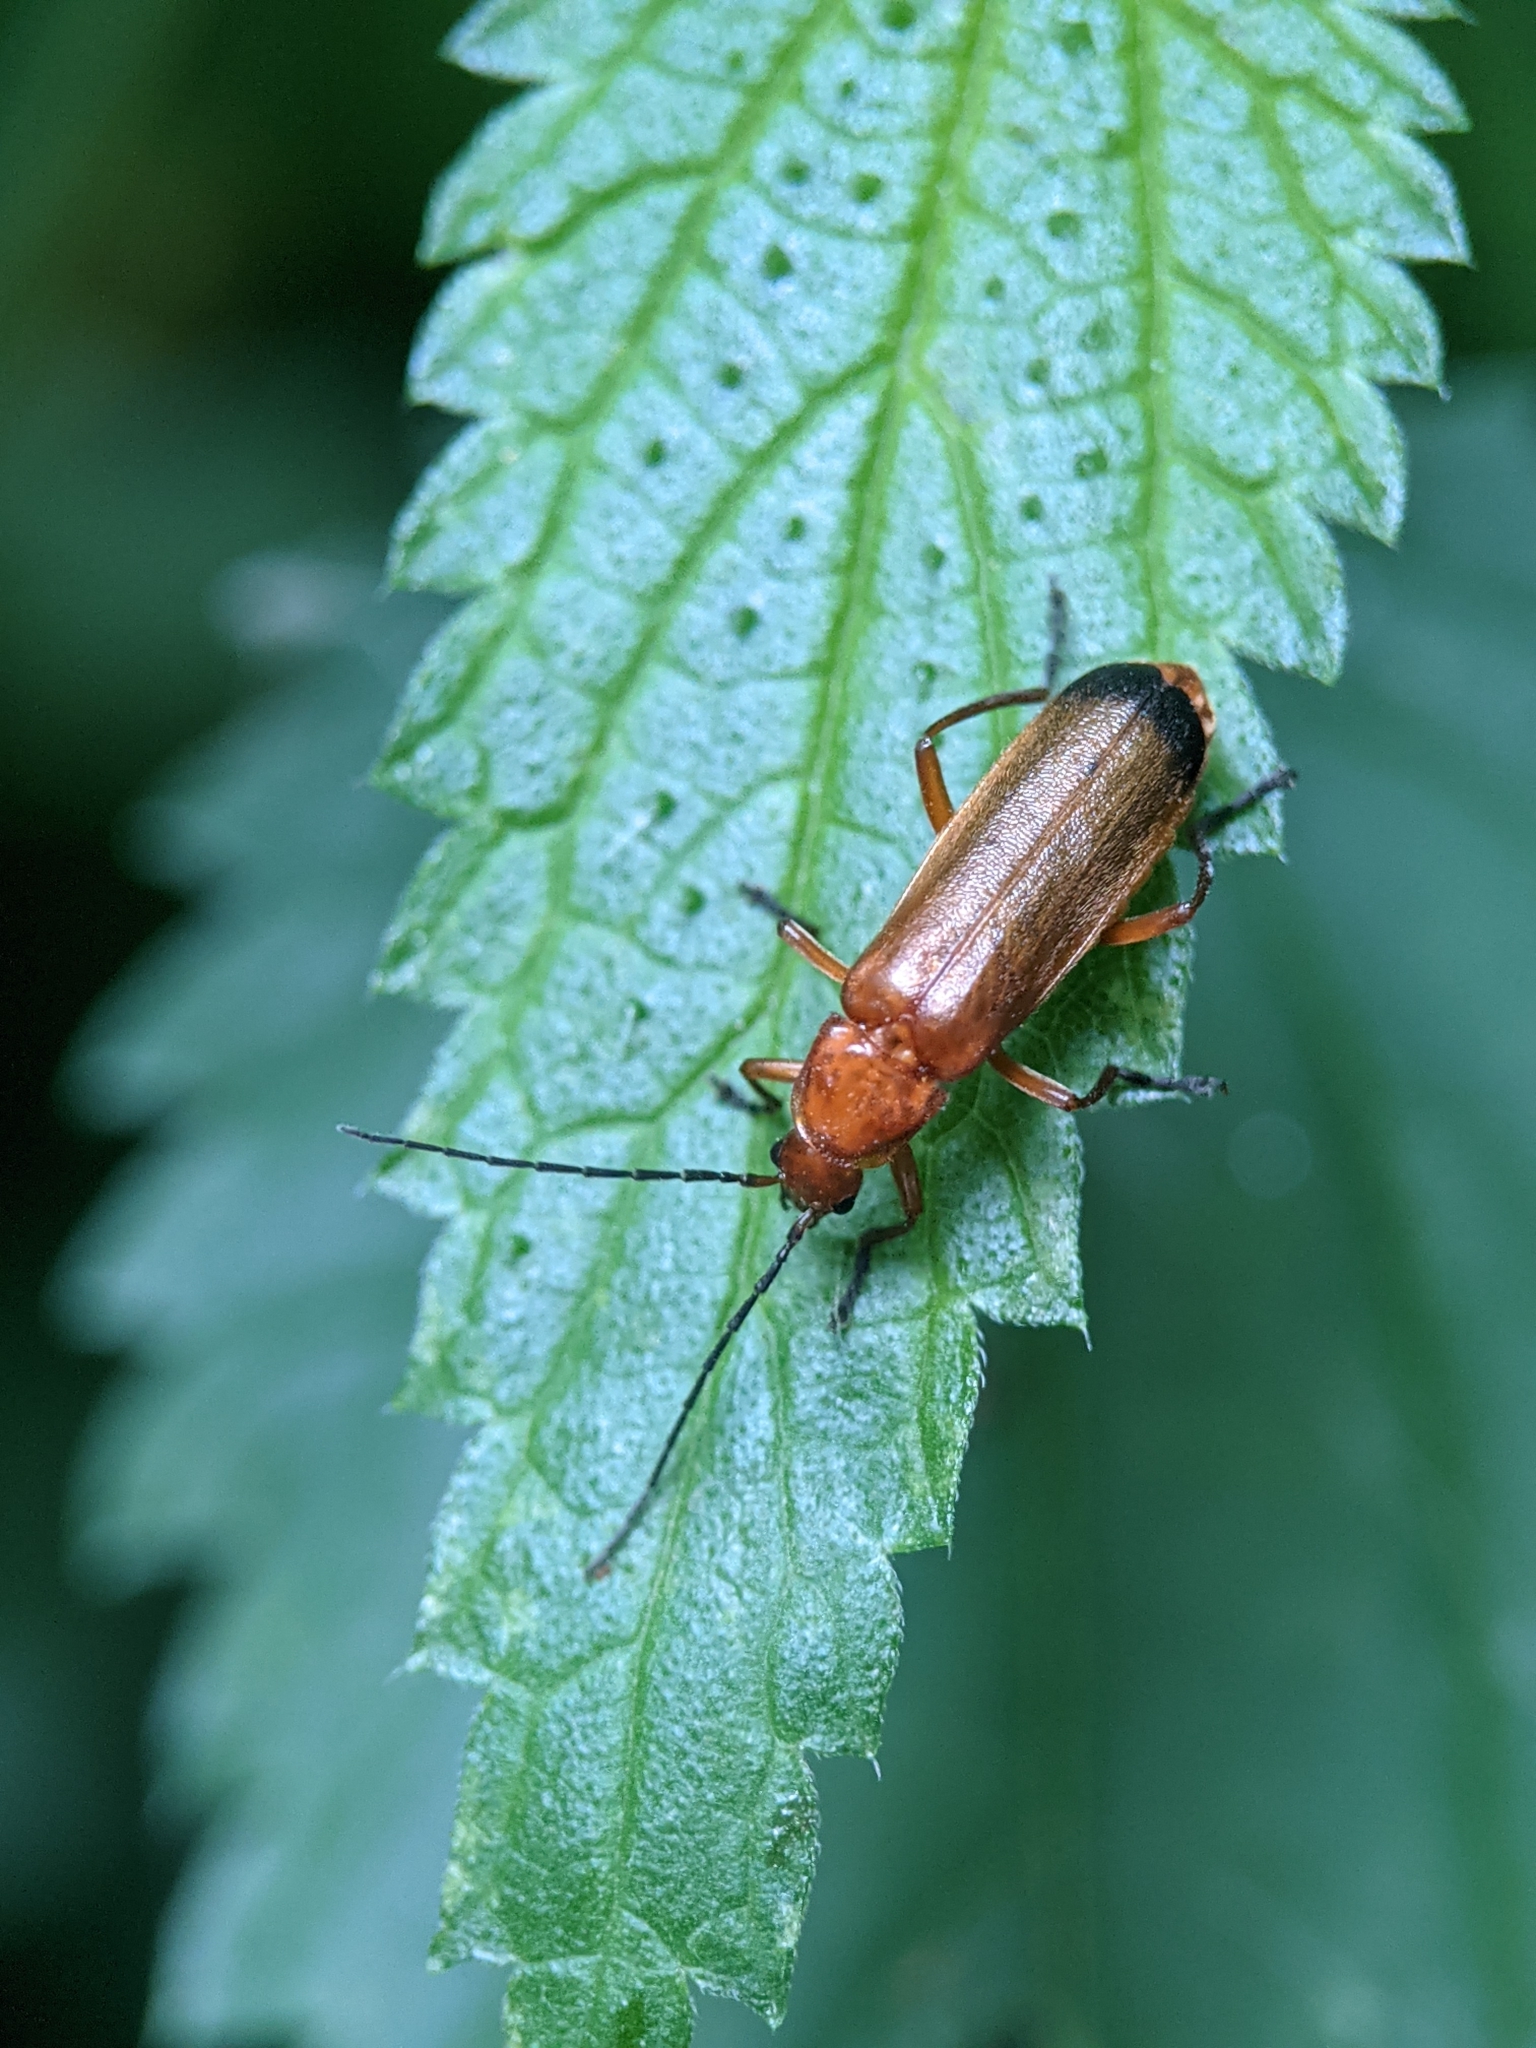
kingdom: Animalia
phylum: Arthropoda
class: Insecta
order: Coleoptera
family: Cantharidae
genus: Rhagonycha
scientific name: Rhagonycha fulva
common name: Common red soldier beetle
